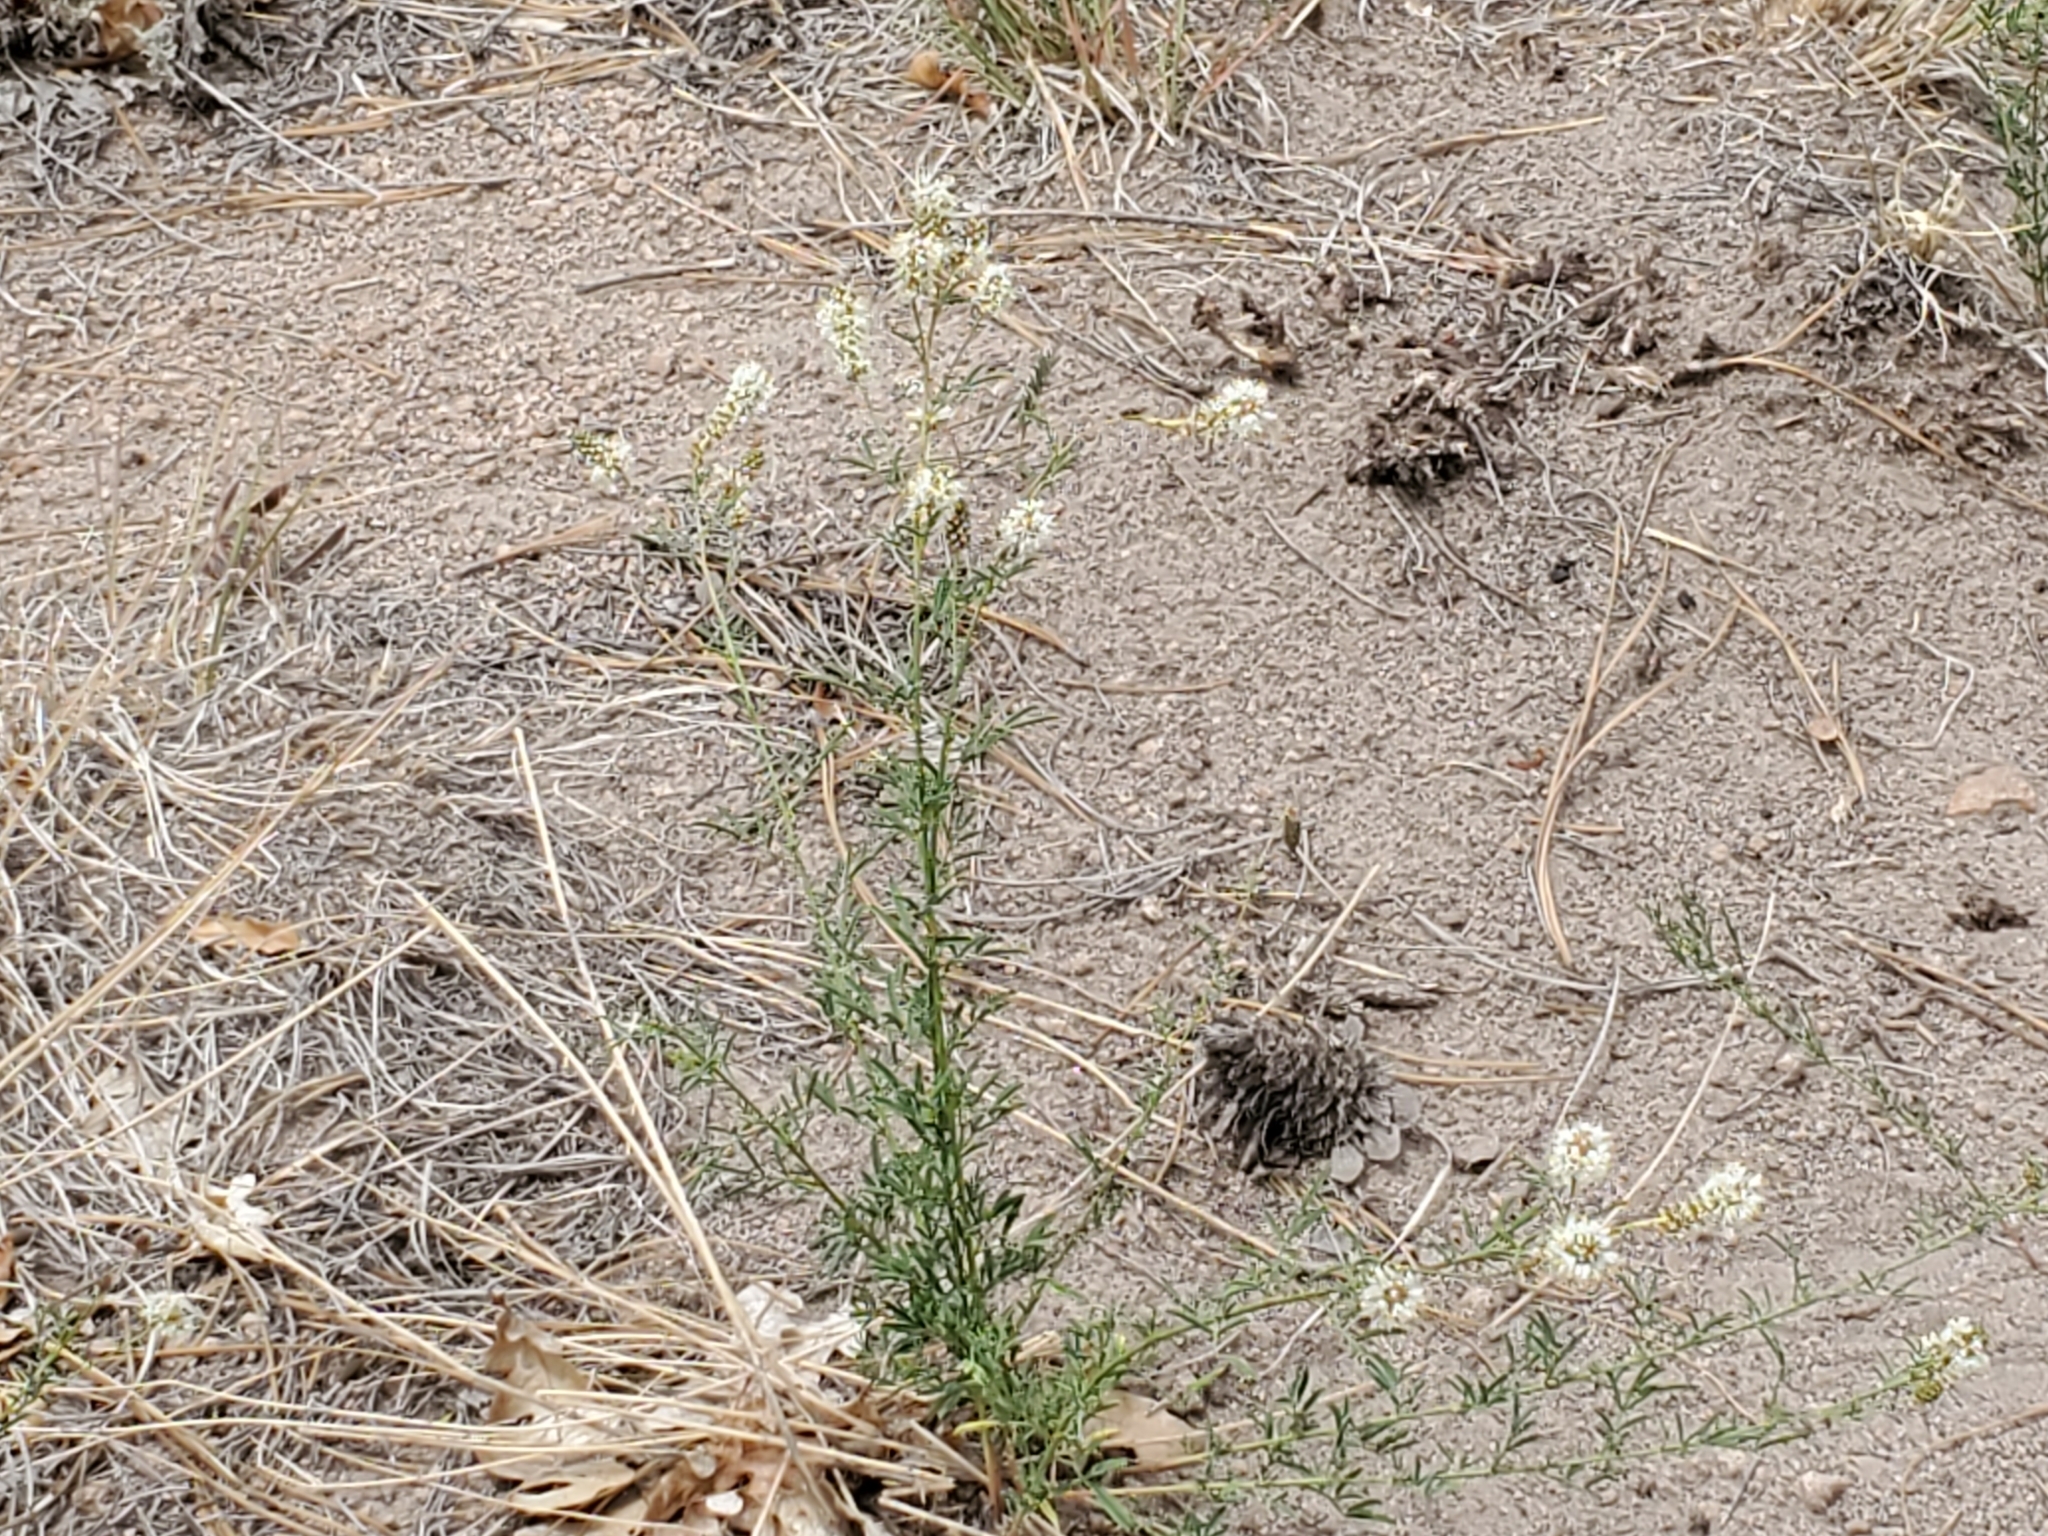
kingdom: Plantae
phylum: Tracheophyta
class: Magnoliopsida
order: Fabales
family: Fabaceae
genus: Dalea
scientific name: Dalea candida
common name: White prairie-clover
